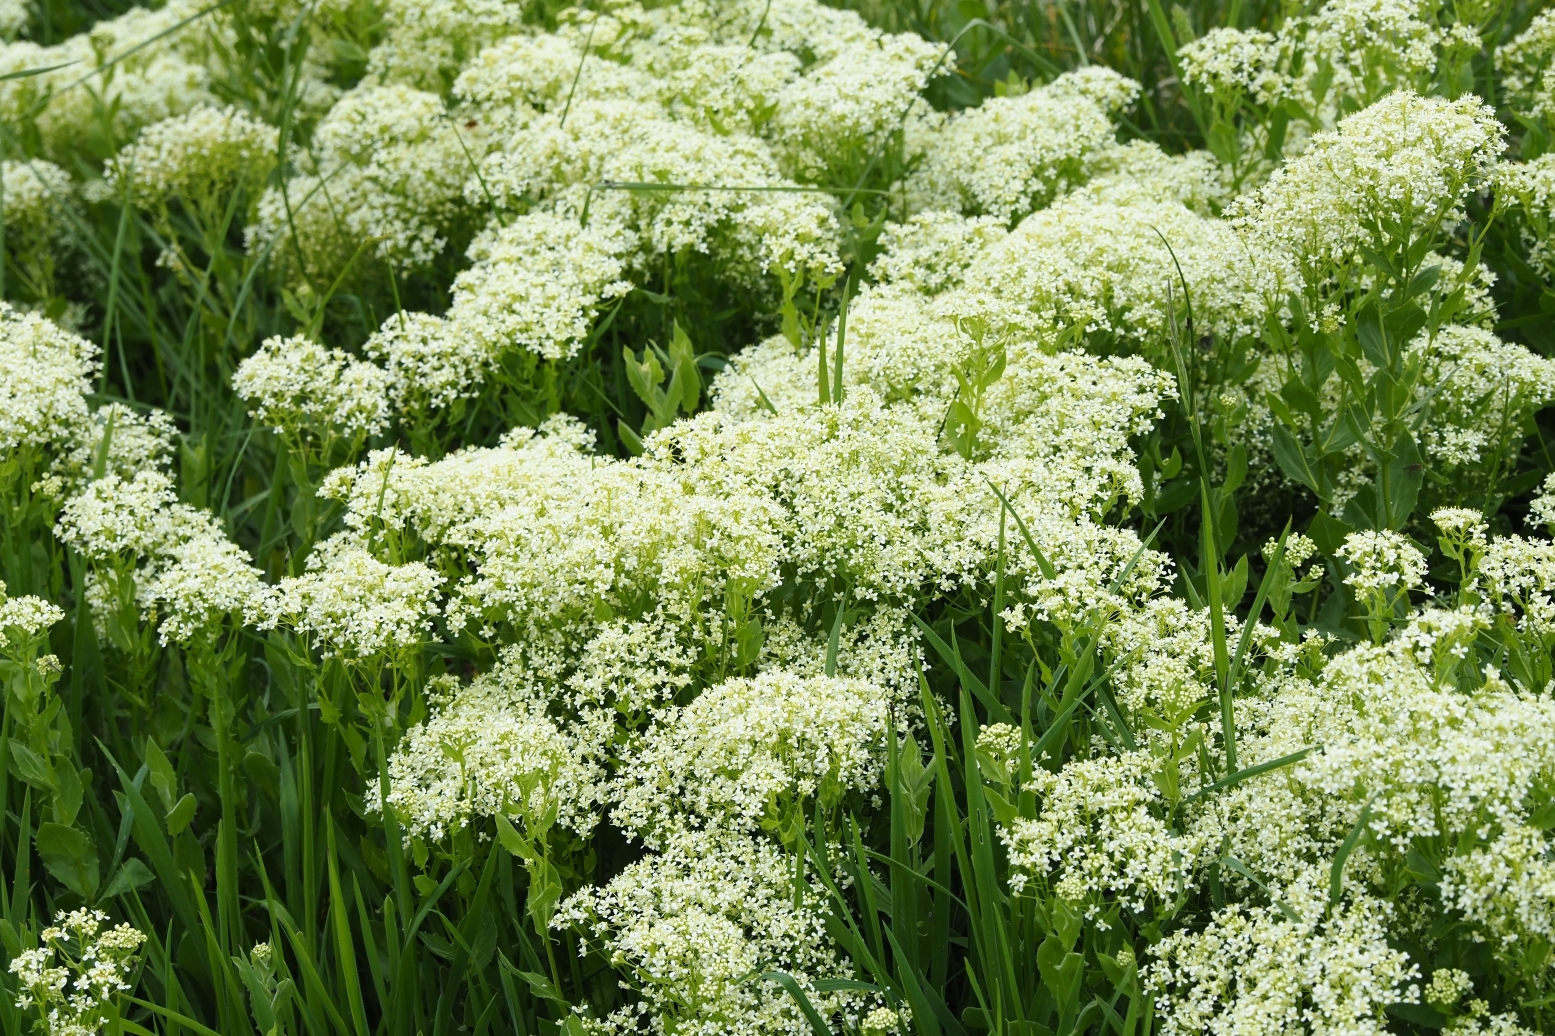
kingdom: Plantae
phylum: Tracheophyta
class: Magnoliopsida
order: Brassicales
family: Brassicaceae
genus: Lepidium
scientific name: Lepidium draba
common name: Hoary cress
